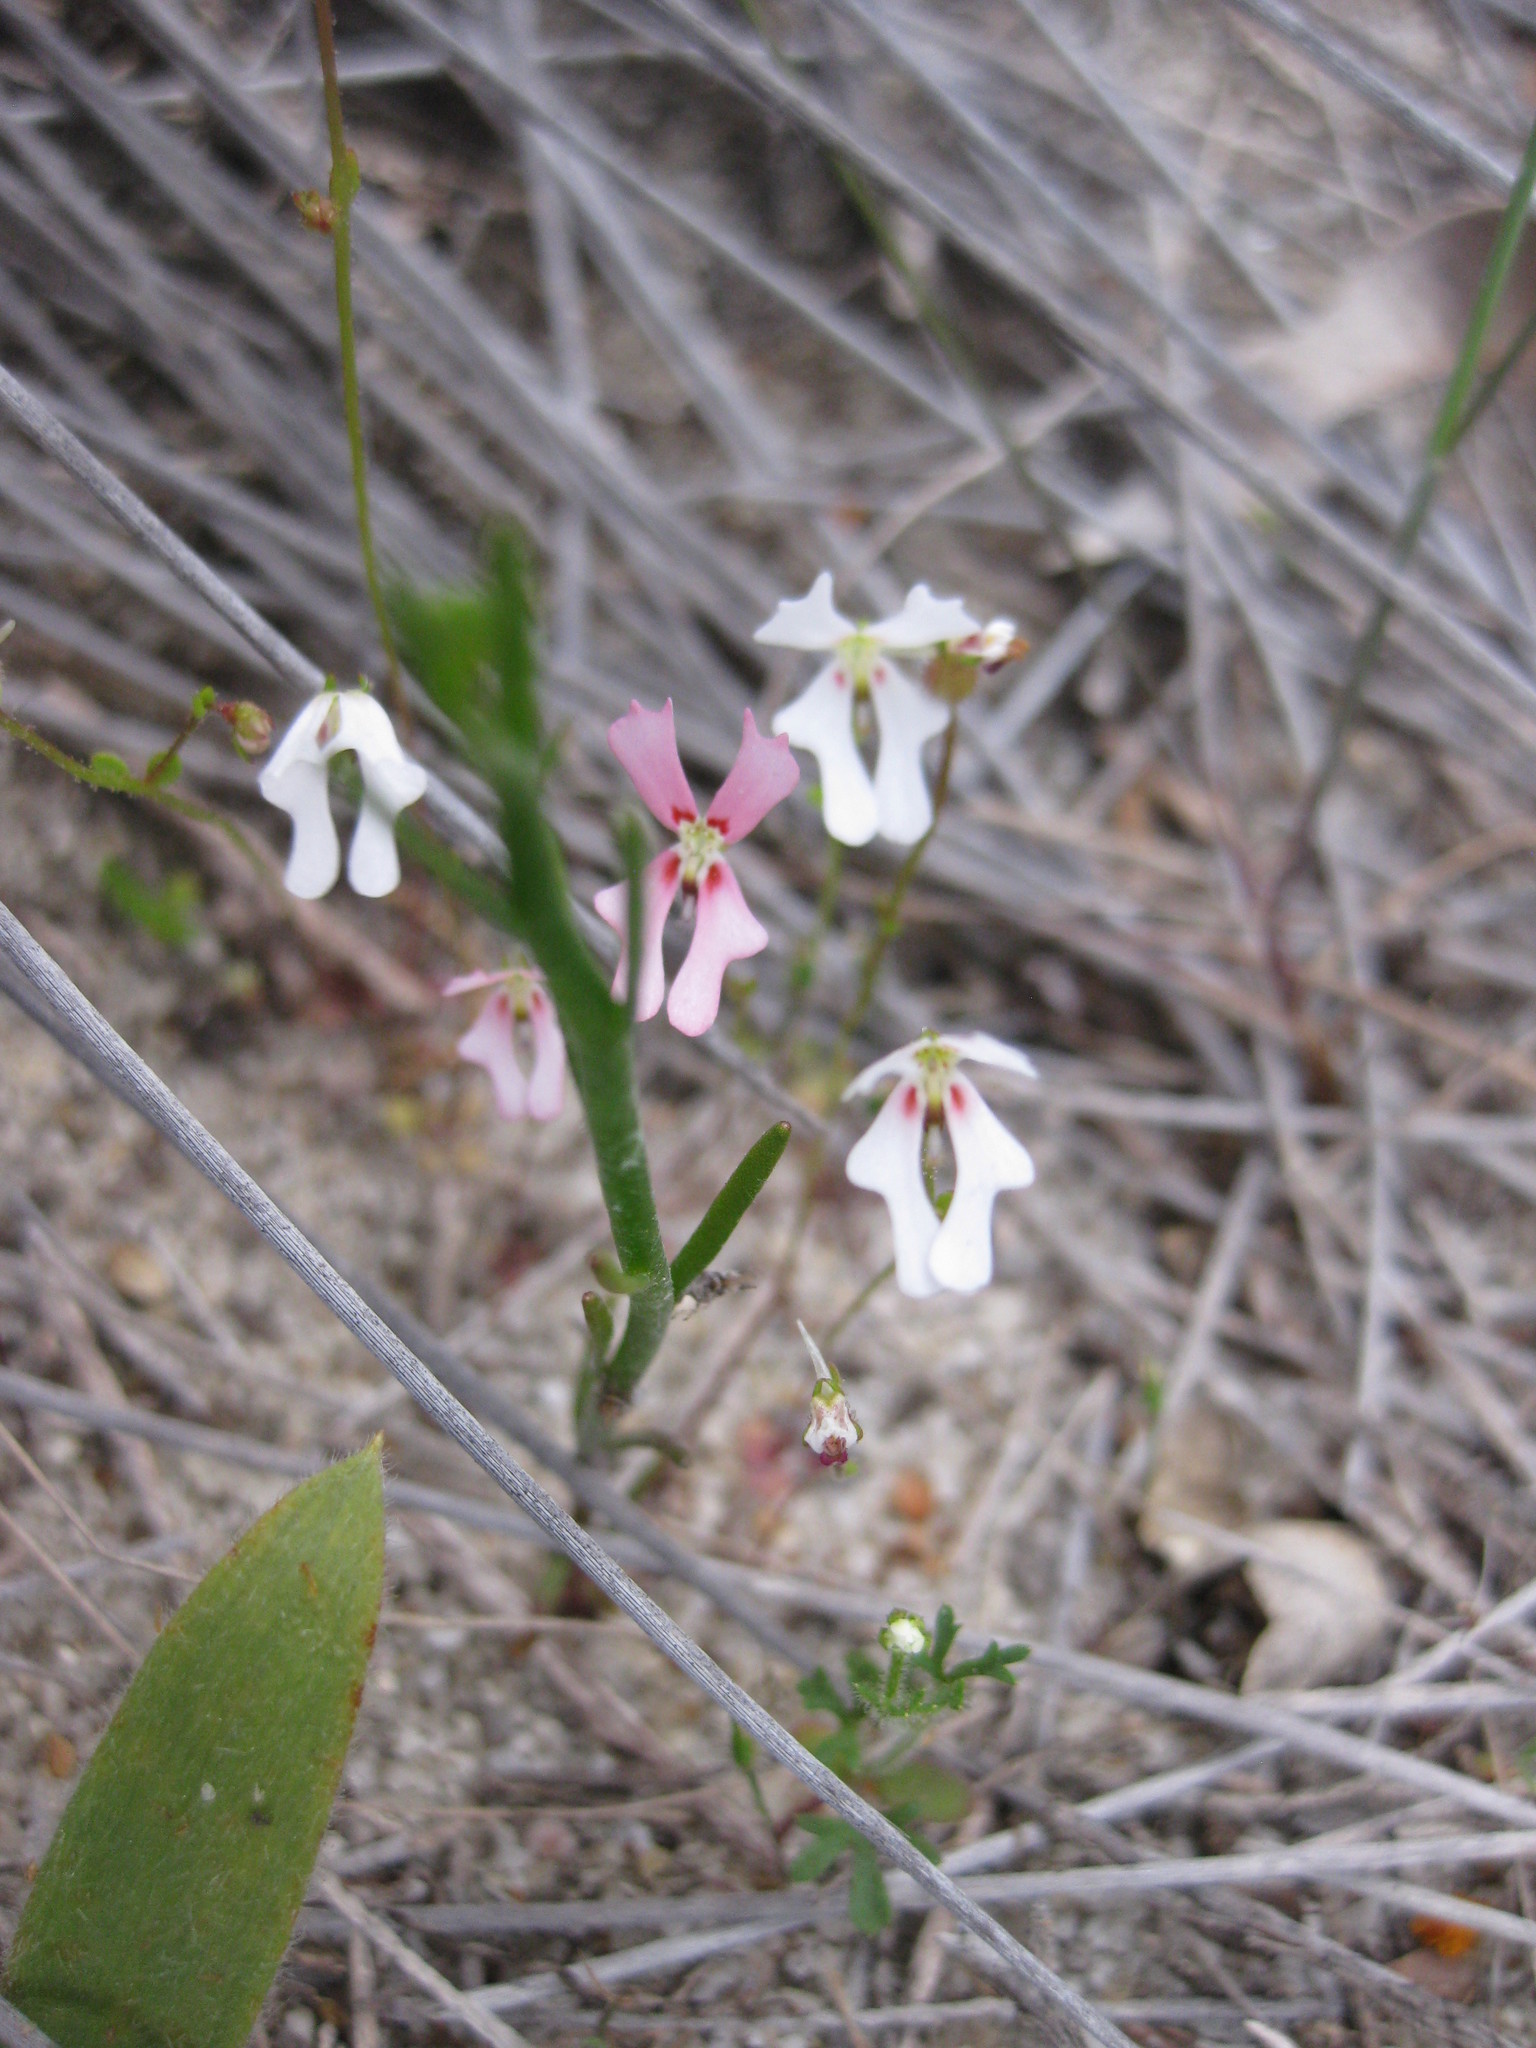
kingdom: Plantae
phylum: Tracheophyta
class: Magnoliopsida
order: Asterales
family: Stylidiaceae
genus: Stylidium
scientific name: Stylidium androsaceum
